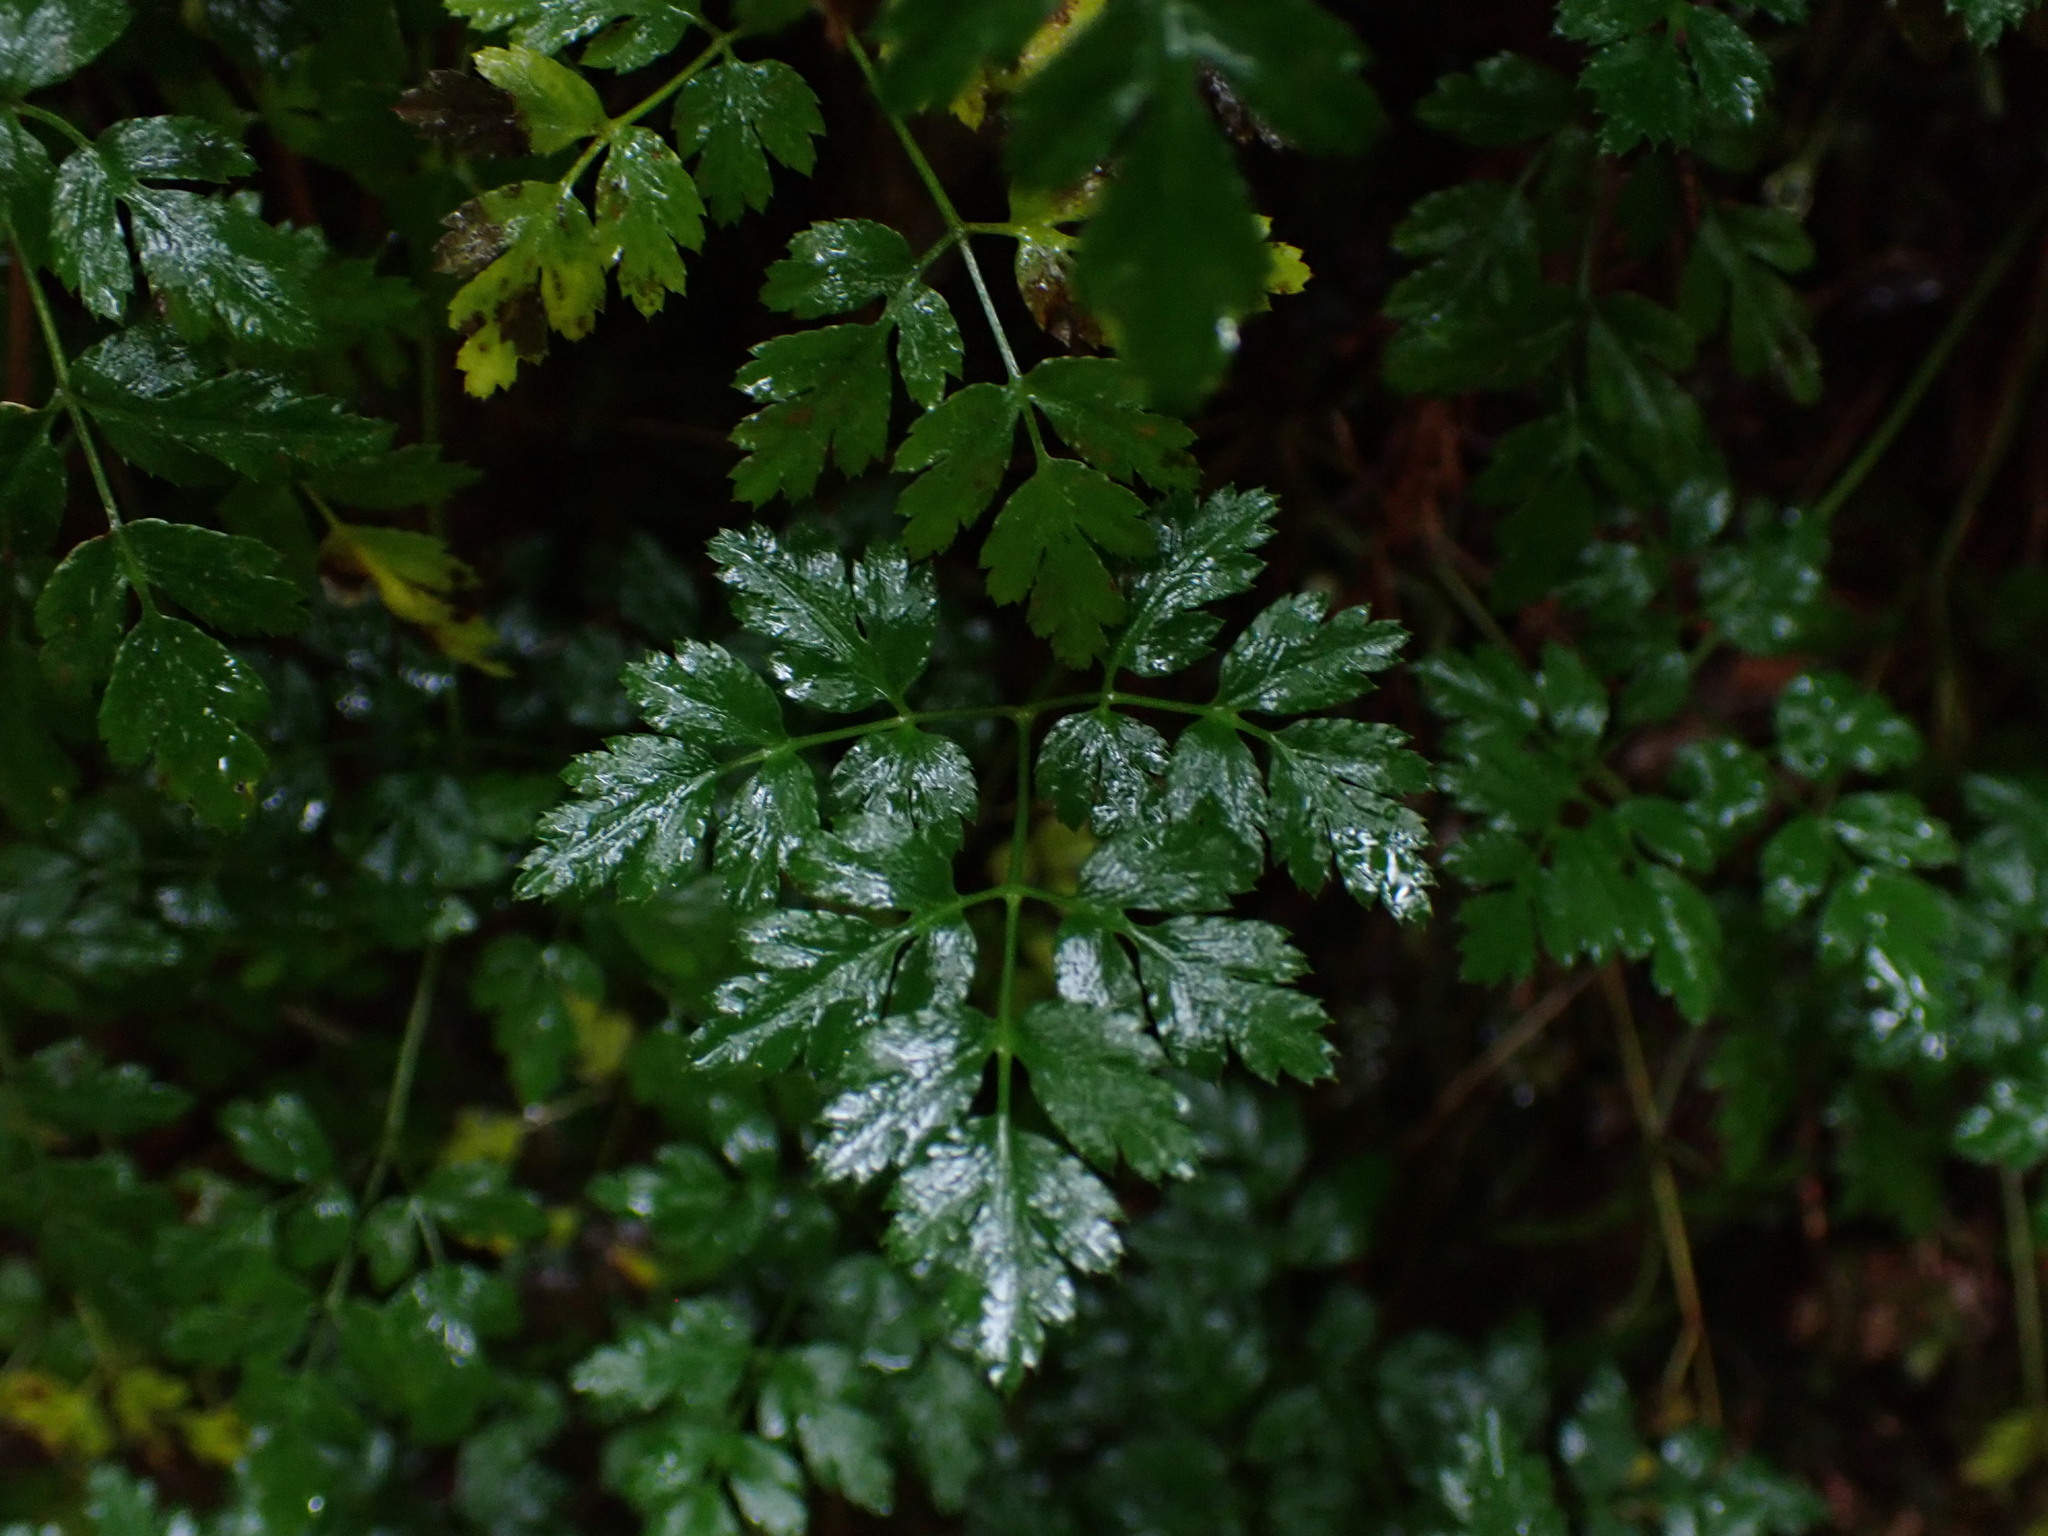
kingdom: Plantae
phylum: Tracheophyta
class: Magnoliopsida
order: Ranunculales
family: Ranunculaceae
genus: Coptis
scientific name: Coptis aspleniifolia
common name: Fern-leaved goldthread
